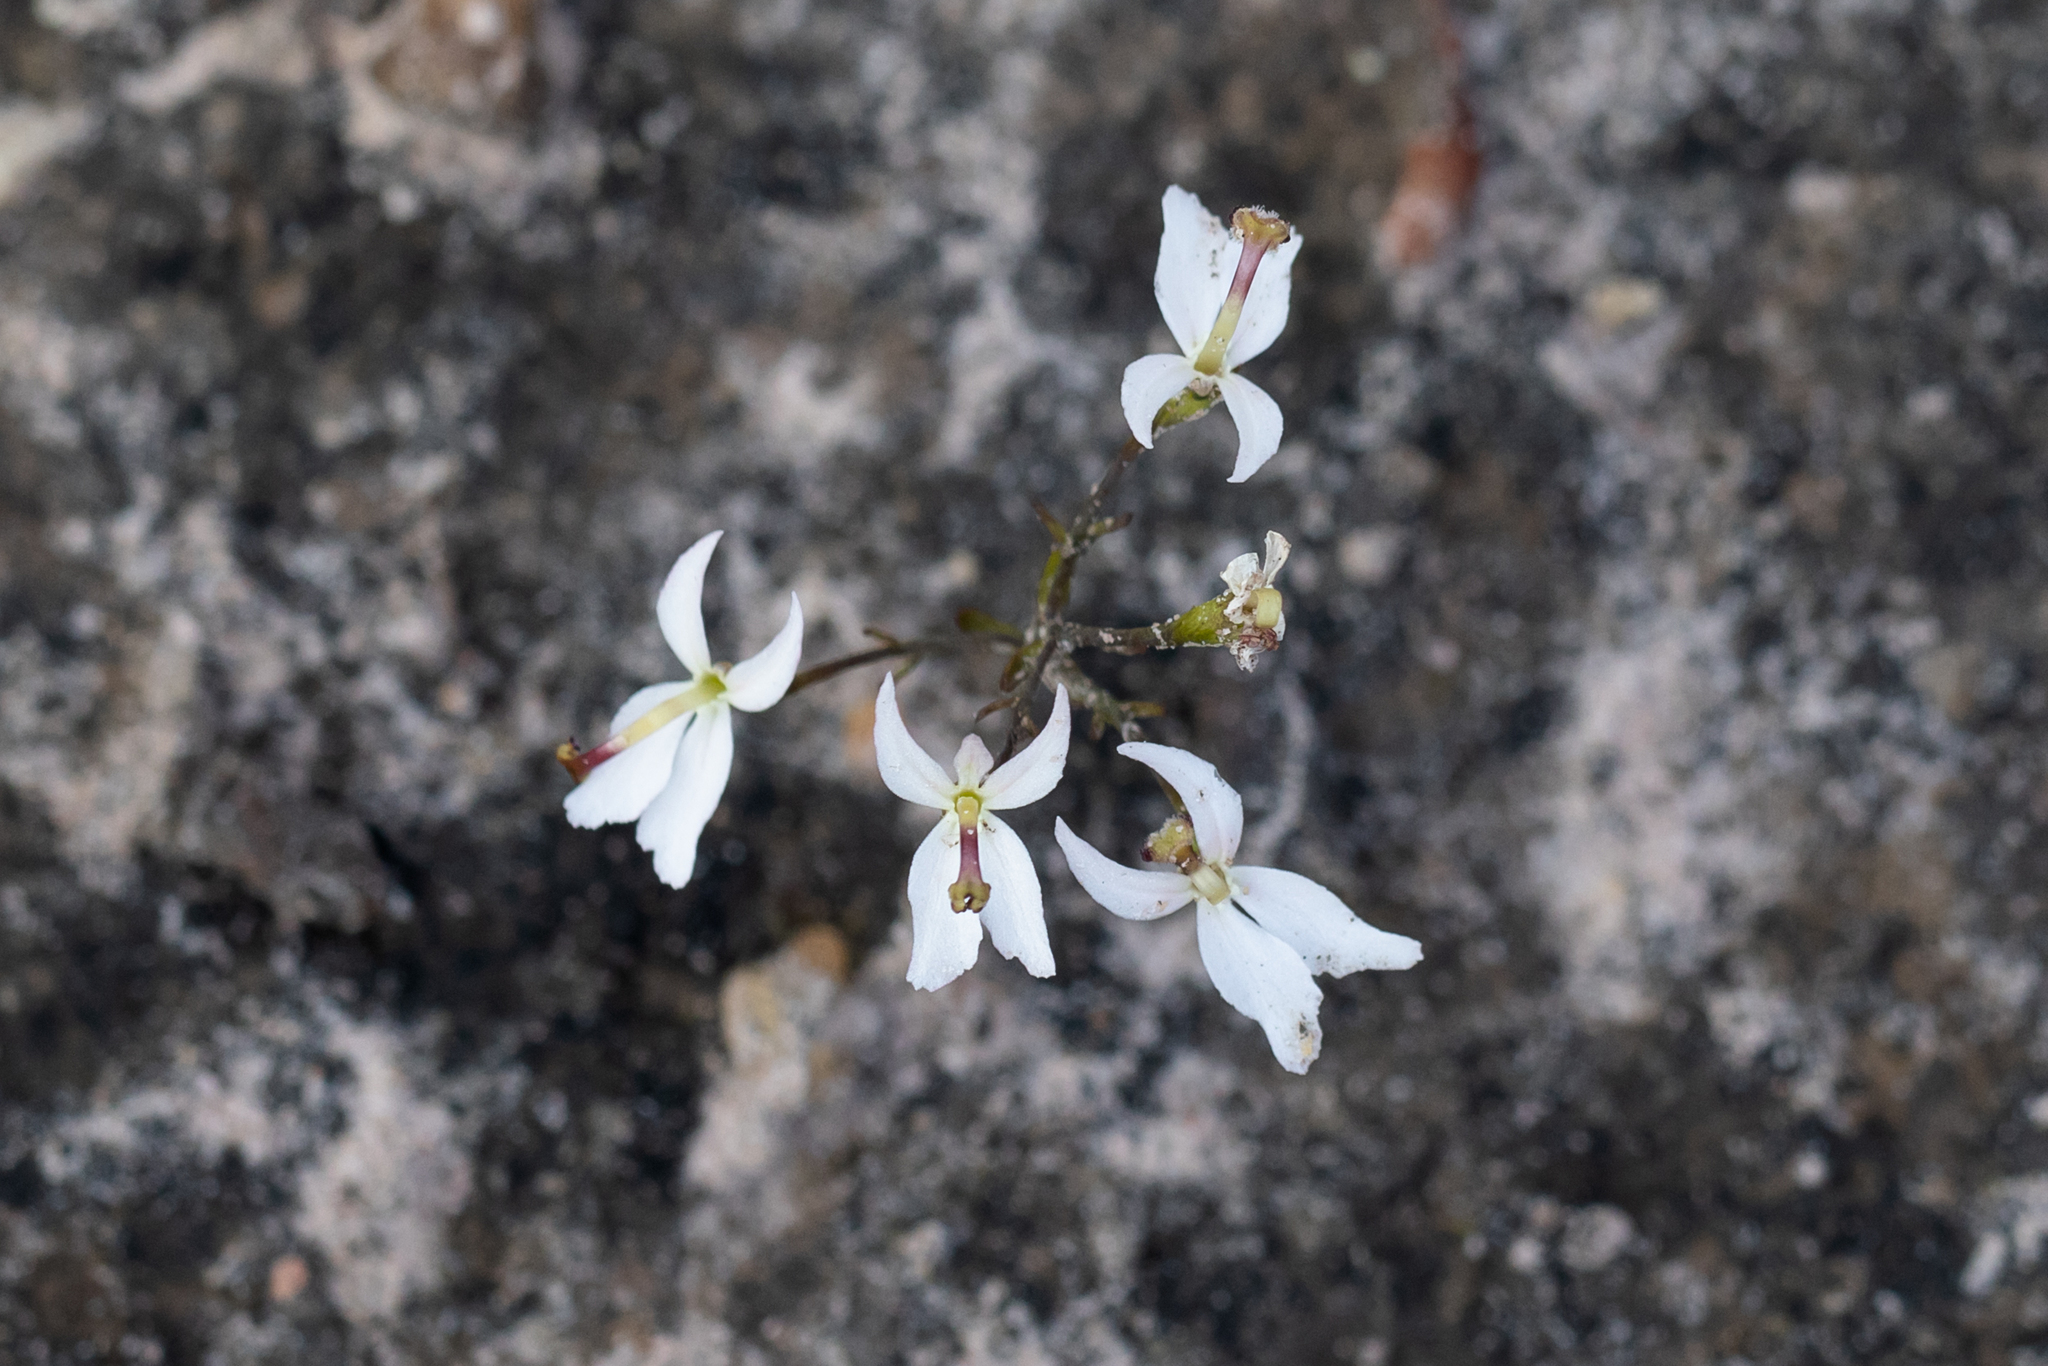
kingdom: Plantae
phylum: Tracheophyta
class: Magnoliopsida
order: Asterales
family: Stylidiaceae
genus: Stylidium
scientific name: Stylidium petiolare
